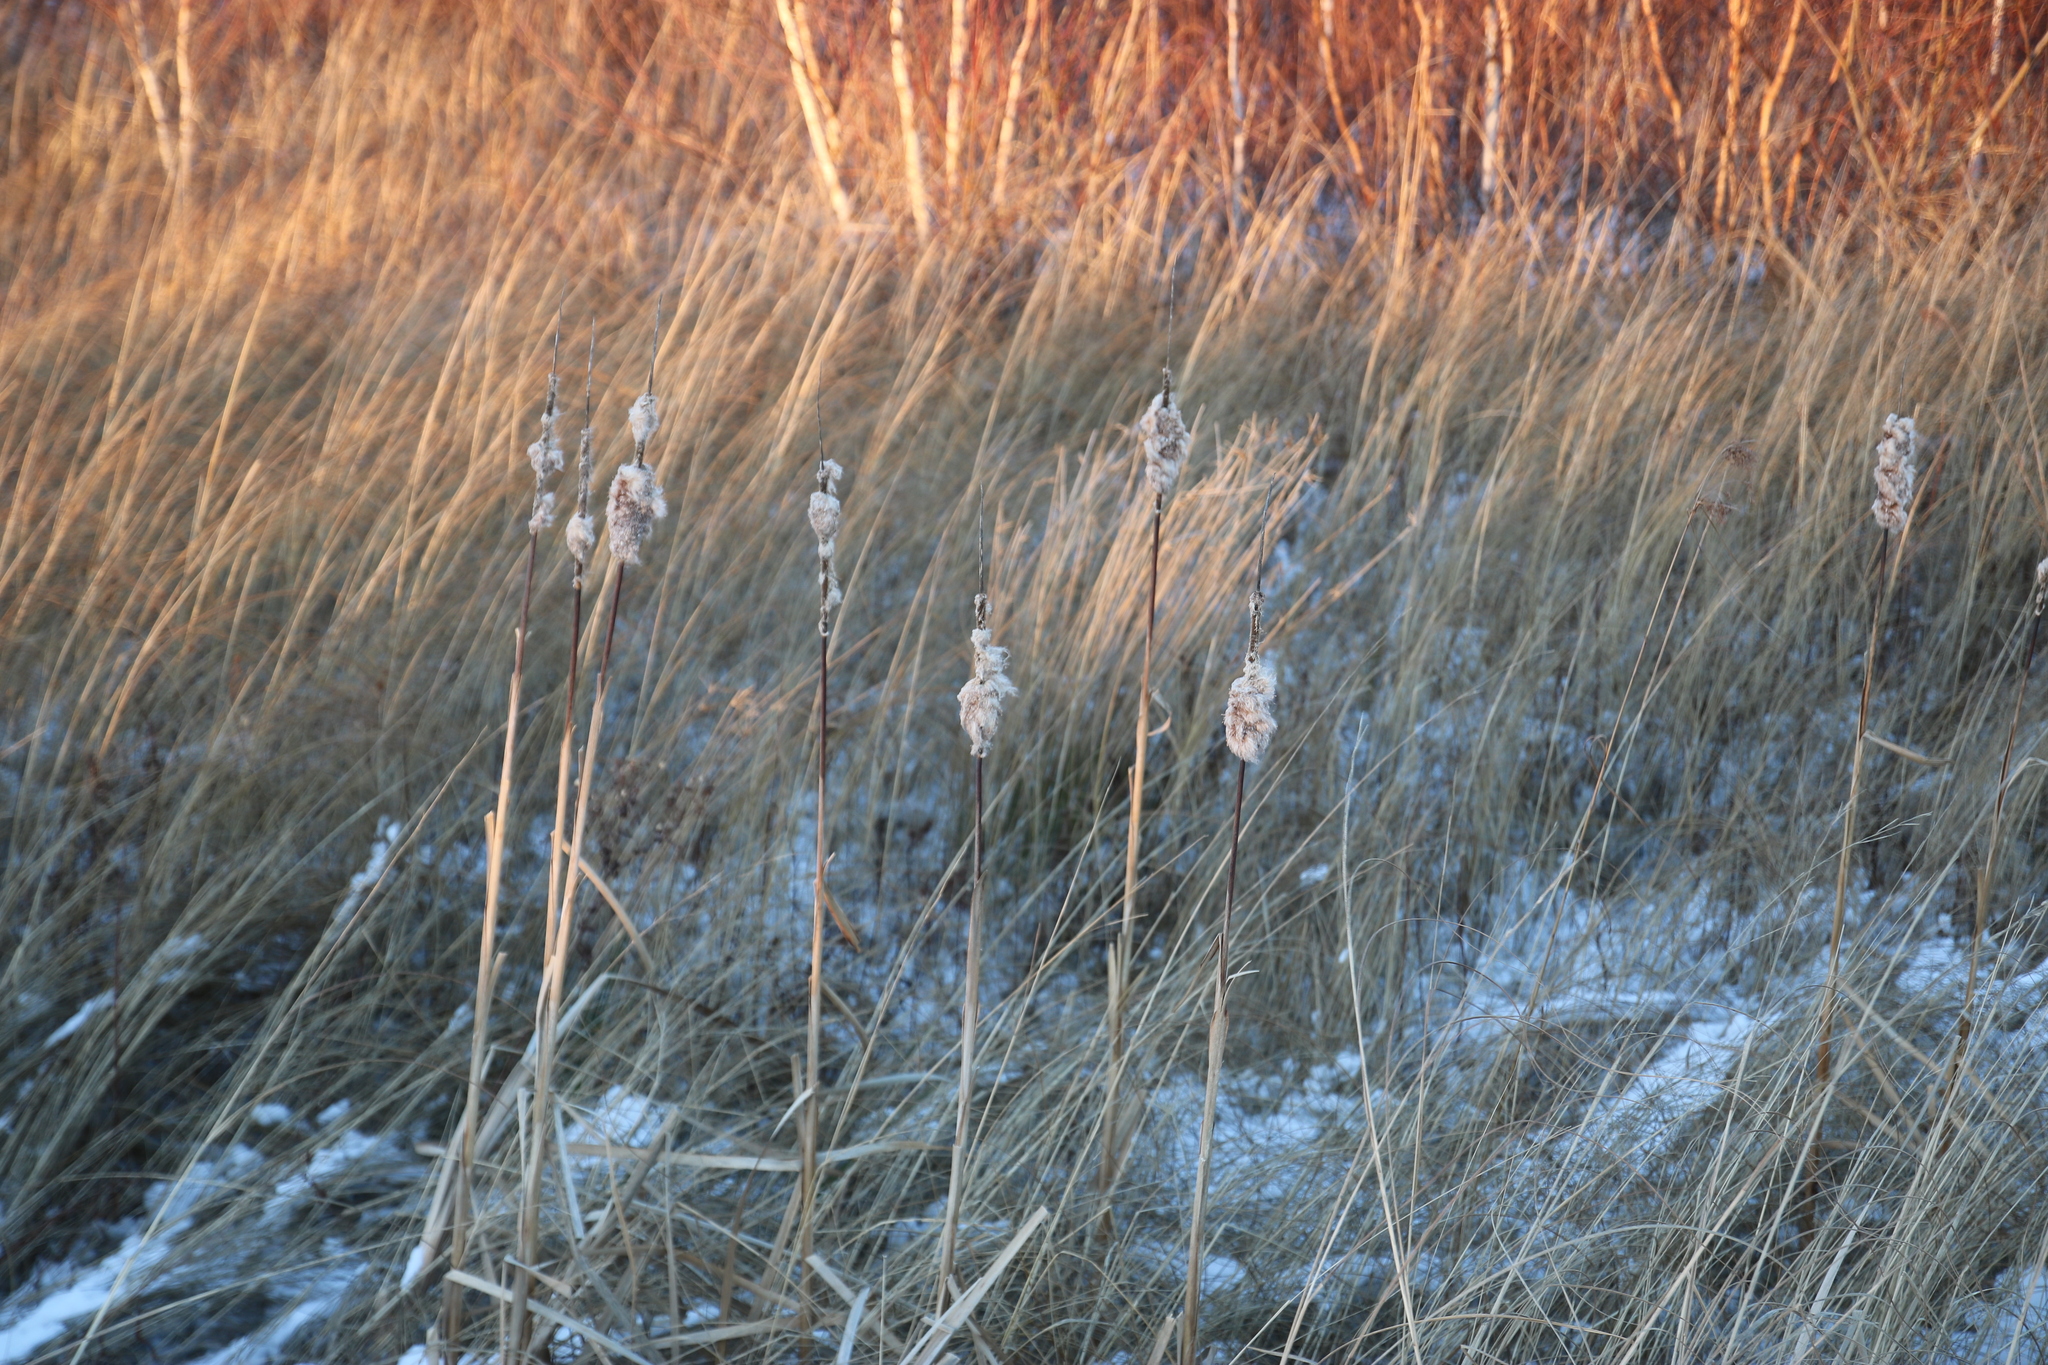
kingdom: Plantae
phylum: Tracheophyta
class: Liliopsida
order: Poales
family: Typhaceae
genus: Typha
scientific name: Typha
